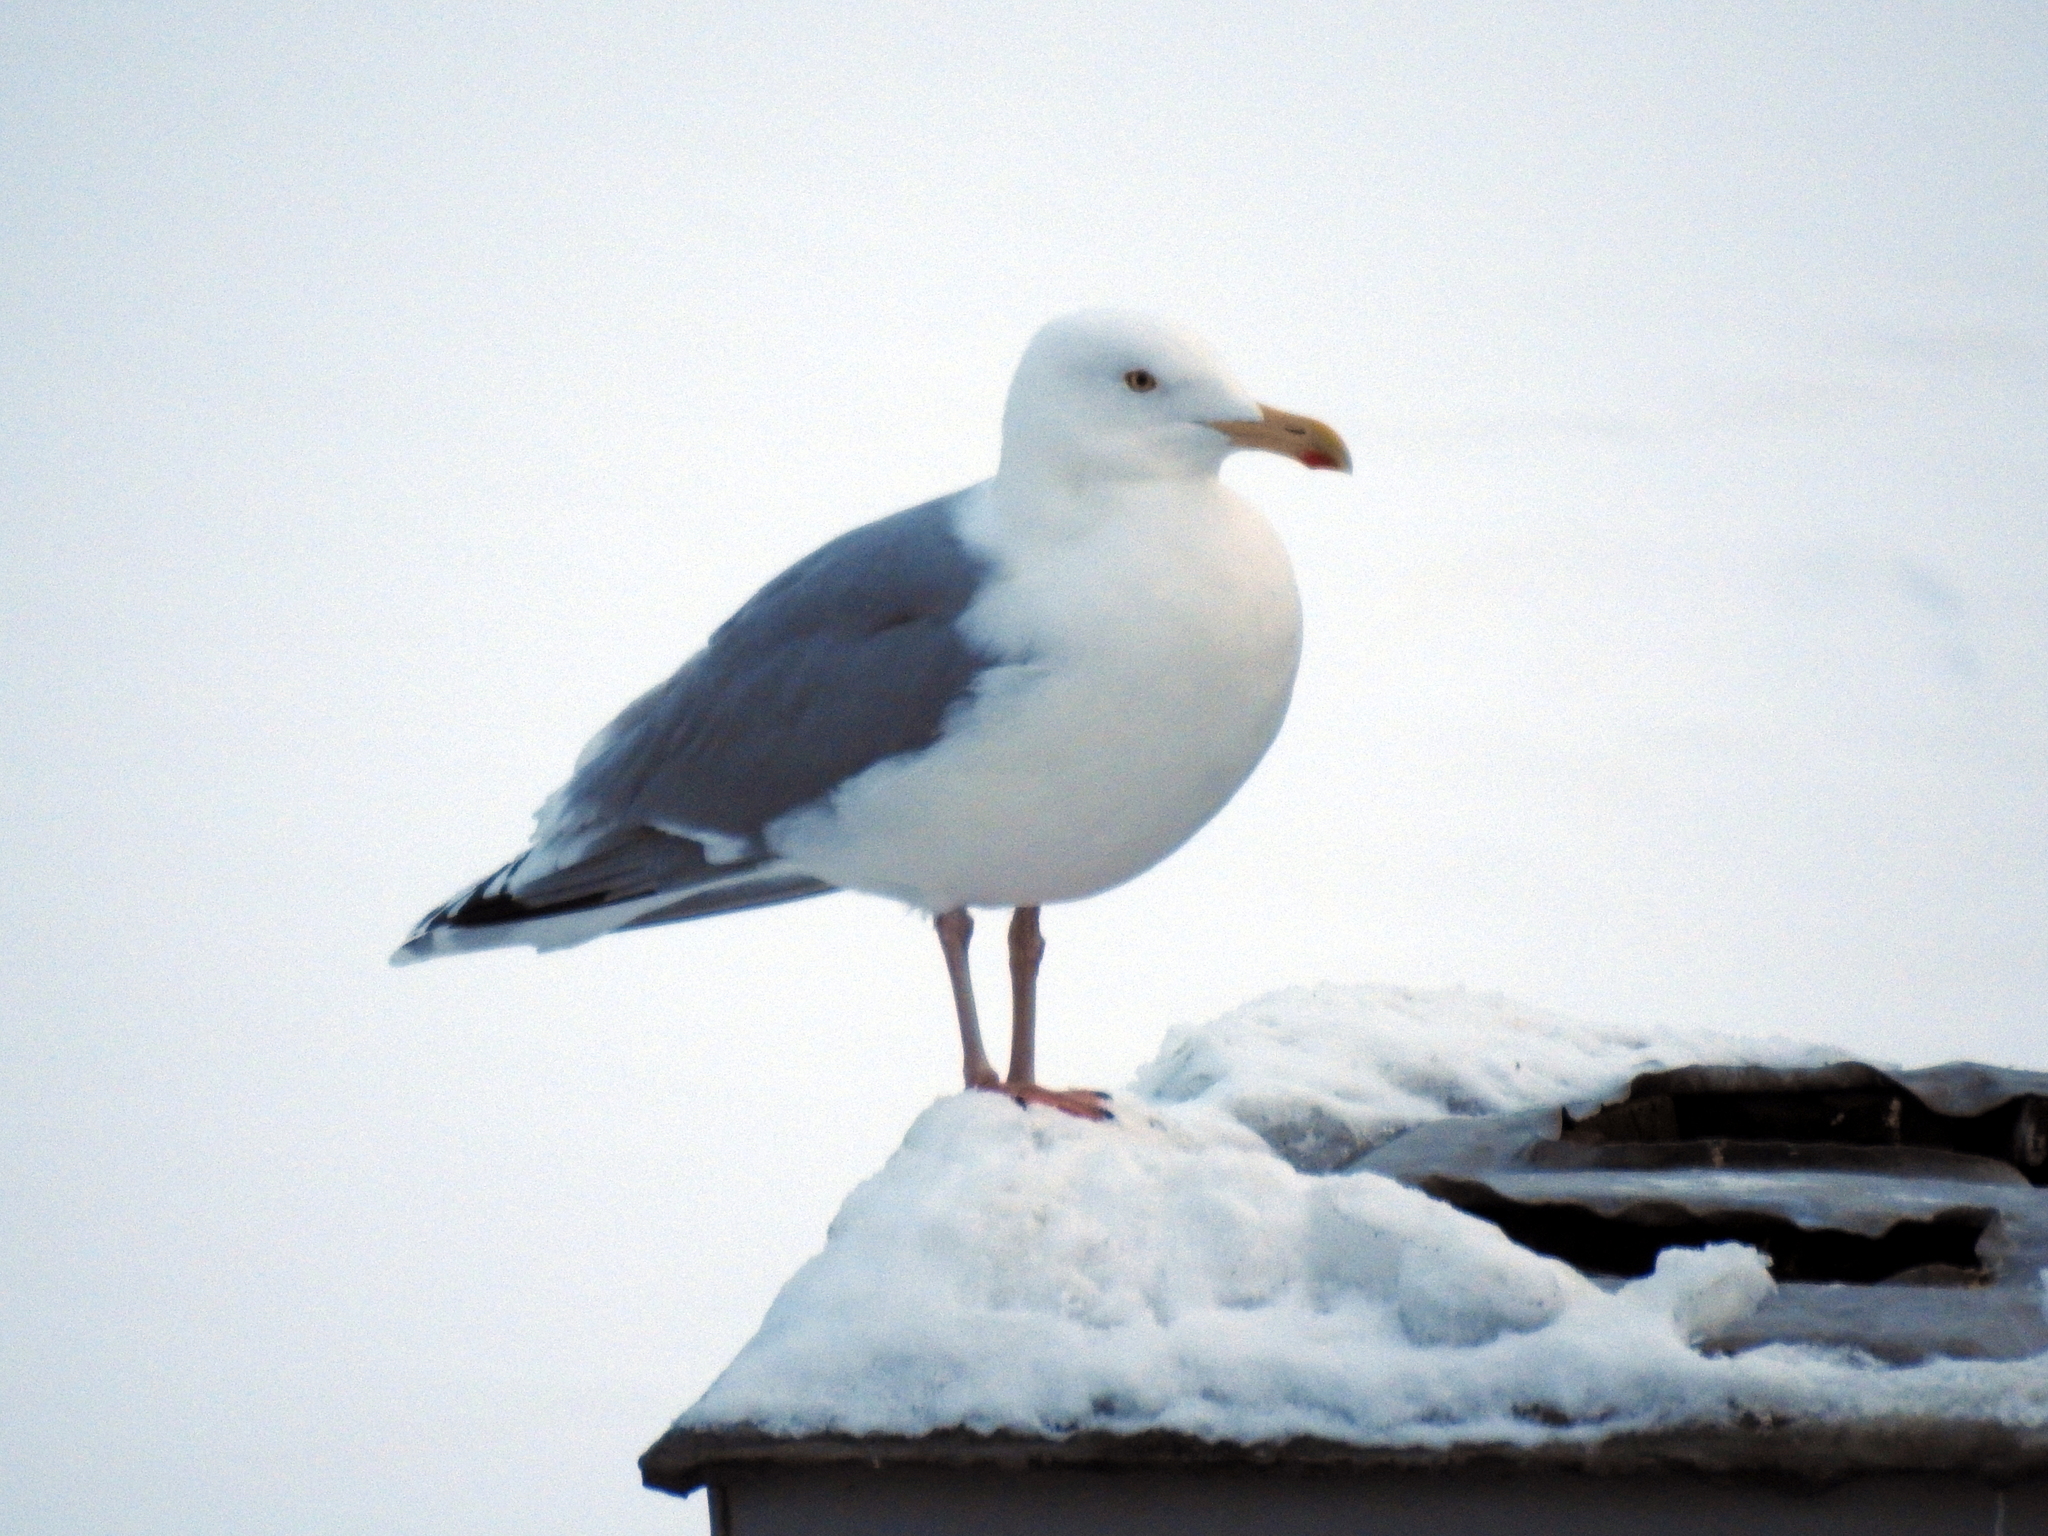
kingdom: Animalia
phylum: Chordata
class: Aves
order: Charadriiformes
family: Laridae
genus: Larus
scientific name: Larus argentatus
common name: Herring gull
